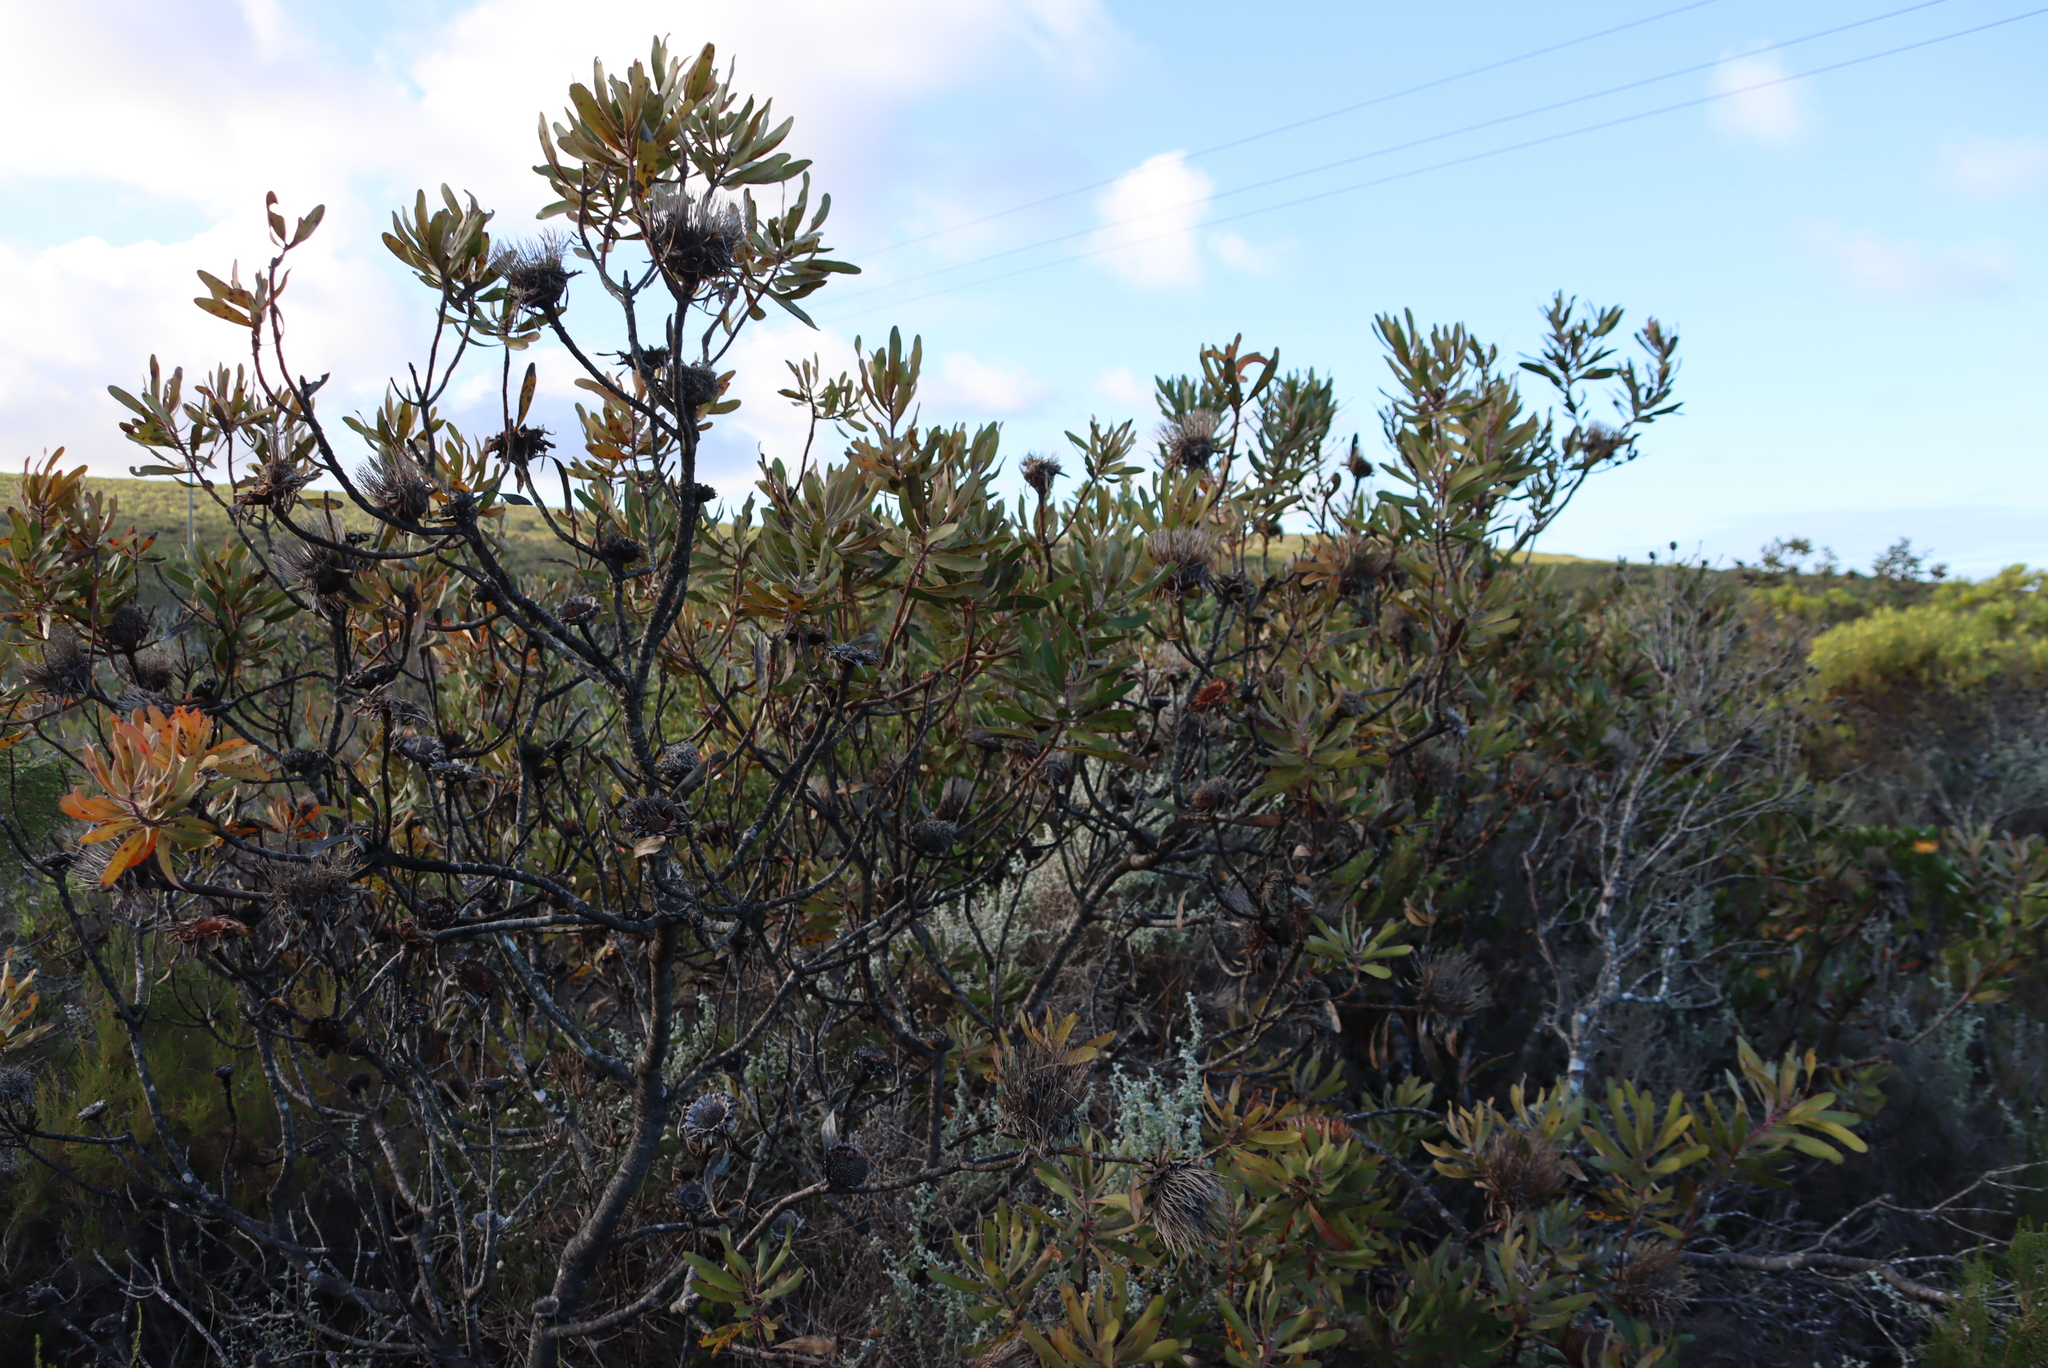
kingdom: Plantae
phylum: Tracheophyta
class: Magnoliopsida
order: Proteales
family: Proteaceae
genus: Protea
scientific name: Protea susannae
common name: Foetid-leaf sugarbush
